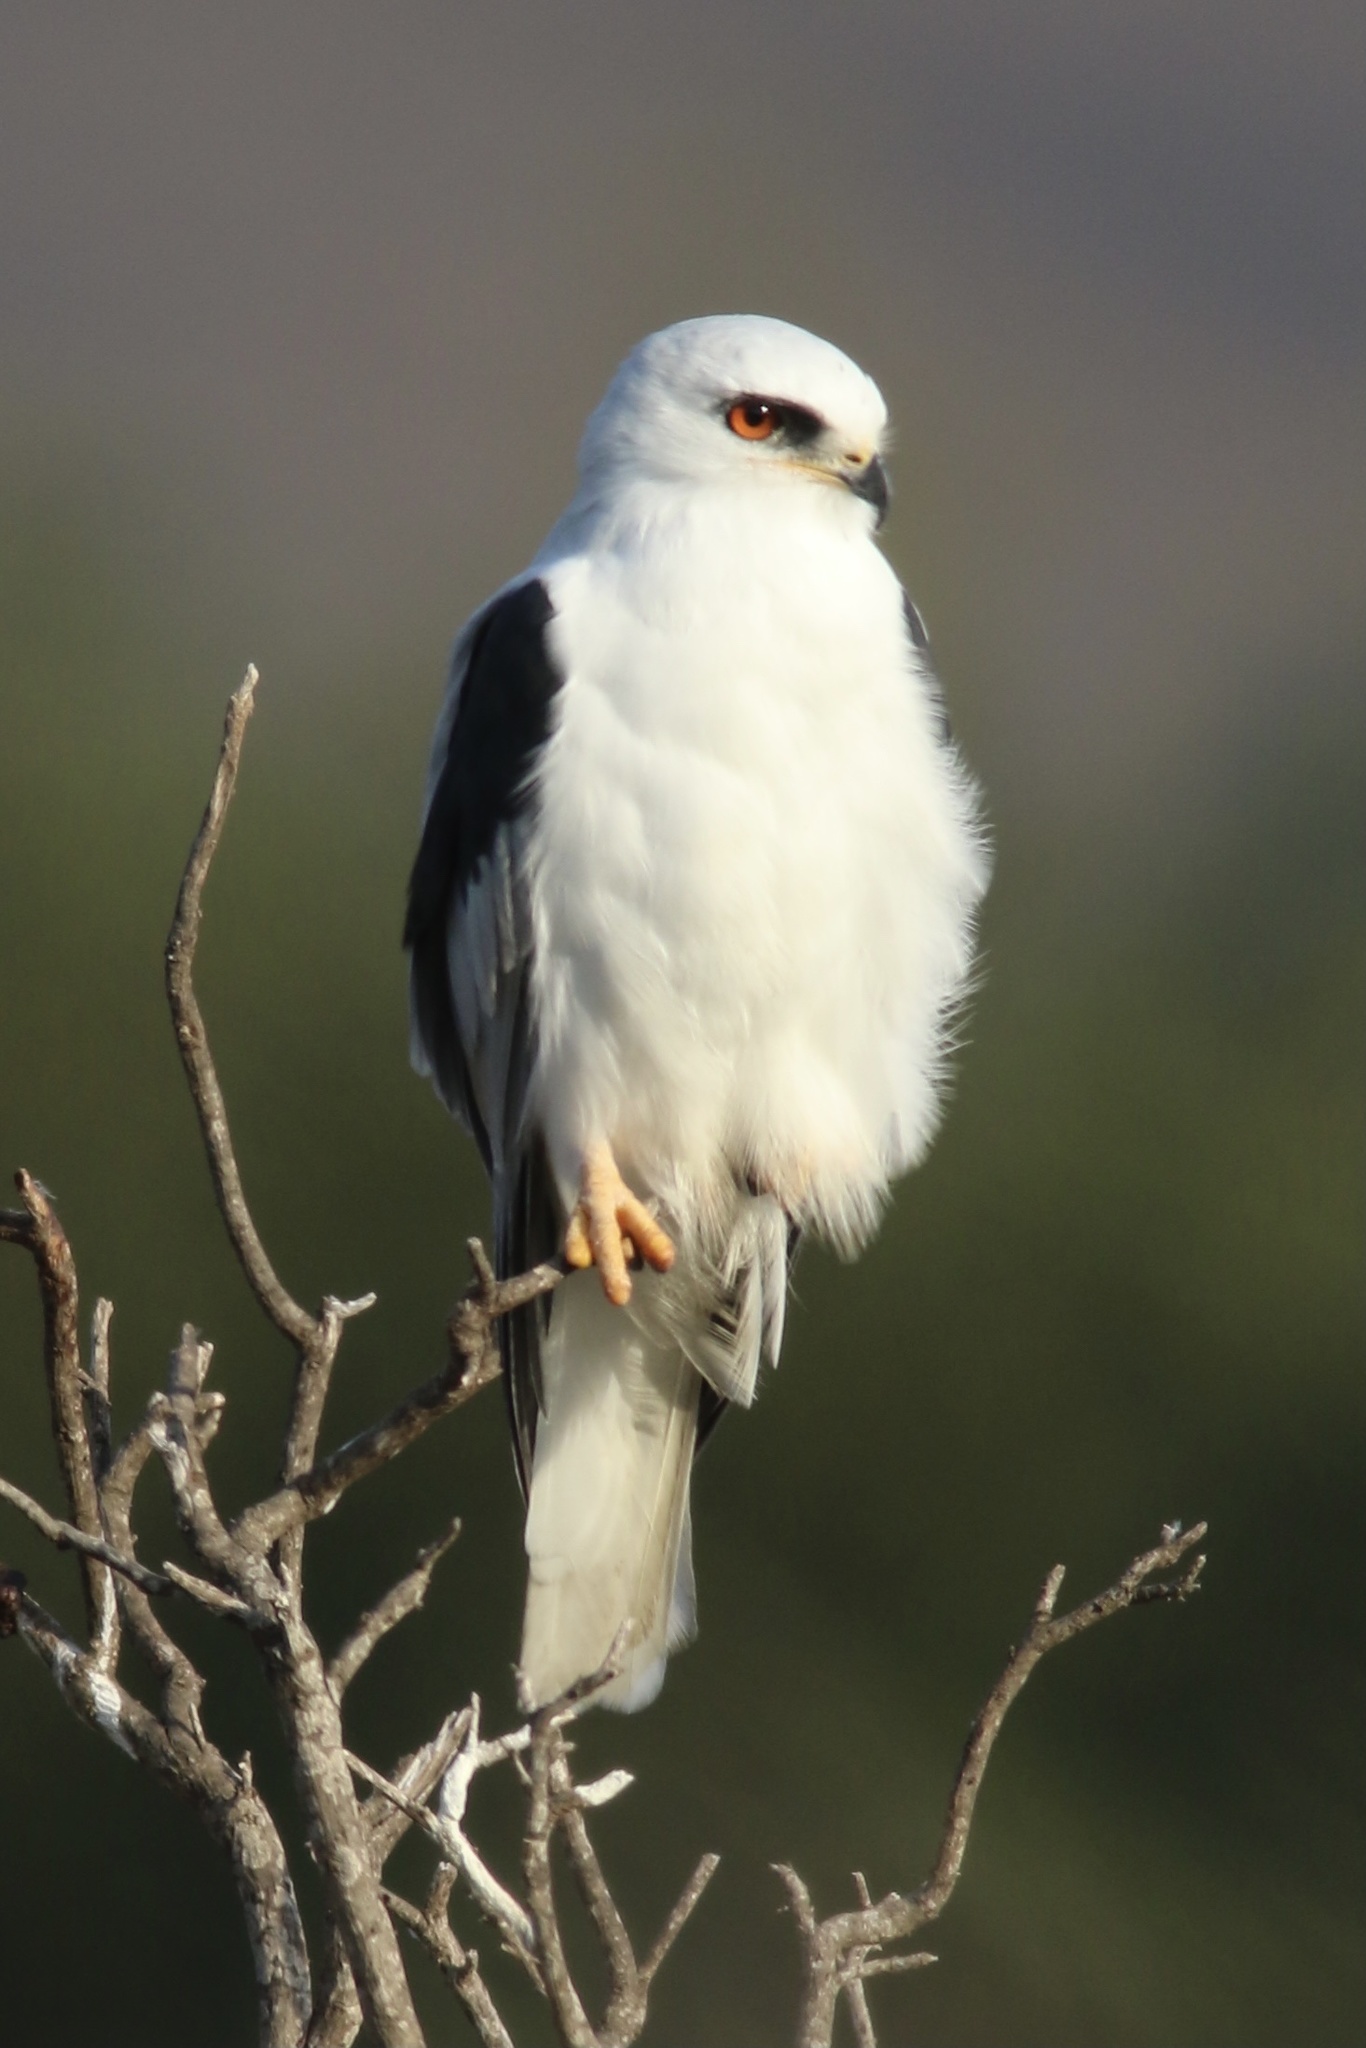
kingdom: Animalia
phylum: Chordata
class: Aves
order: Accipitriformes
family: Accipitridae
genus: Elanus
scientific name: Elanus leucurus
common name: White-tailed kite
